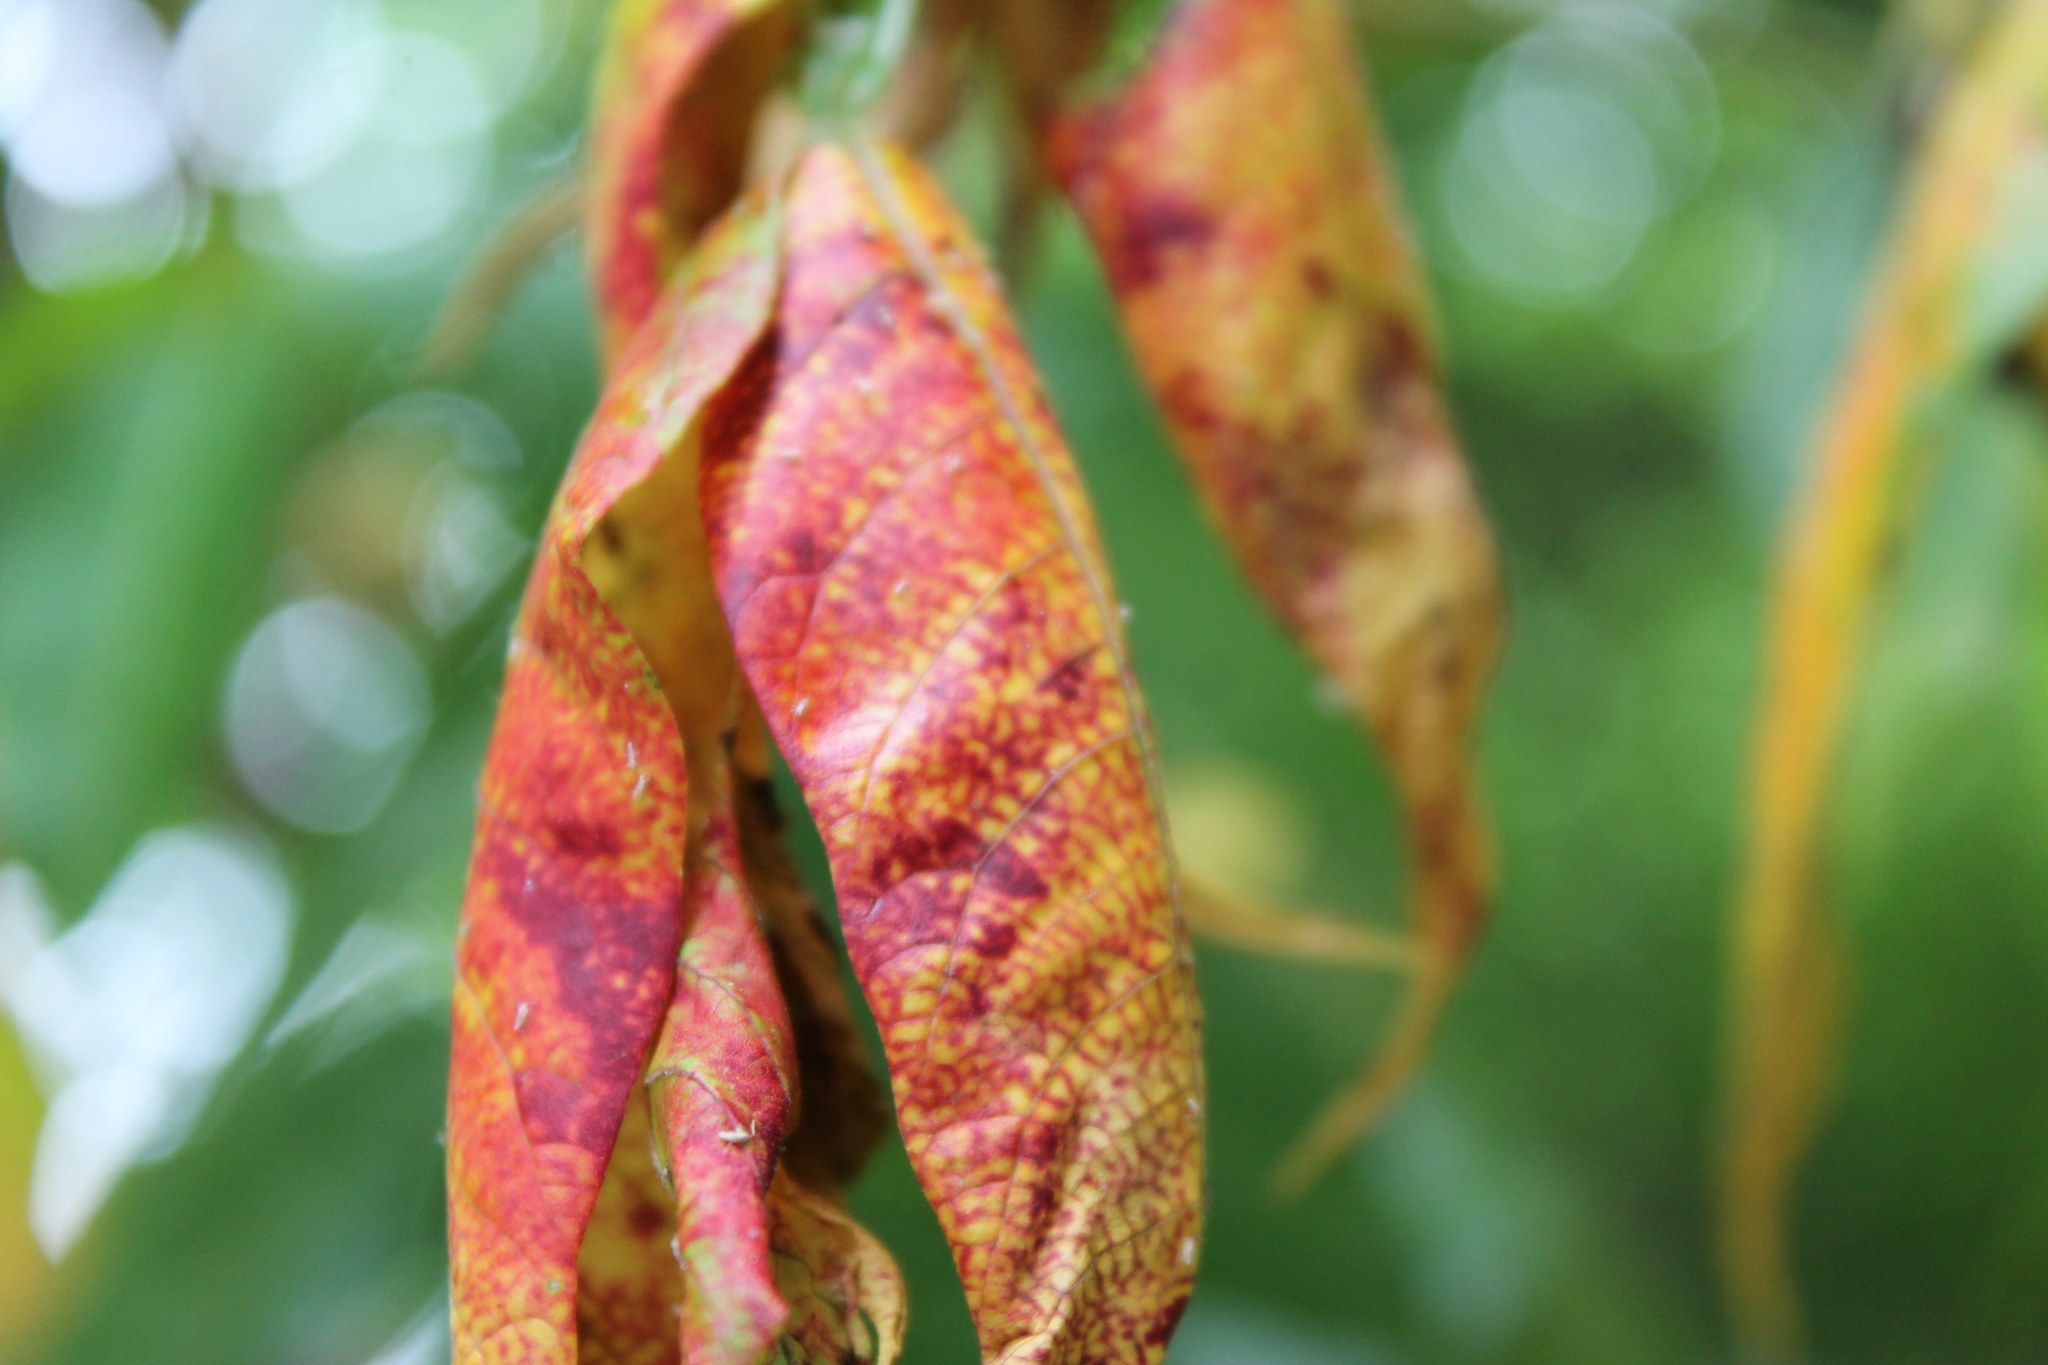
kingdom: Plantae
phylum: Tracheophyta
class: Magnoliopsida
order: Sapindales
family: Anacardiaceae
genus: Rhus
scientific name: Rhus copallina
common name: Shining sumac
